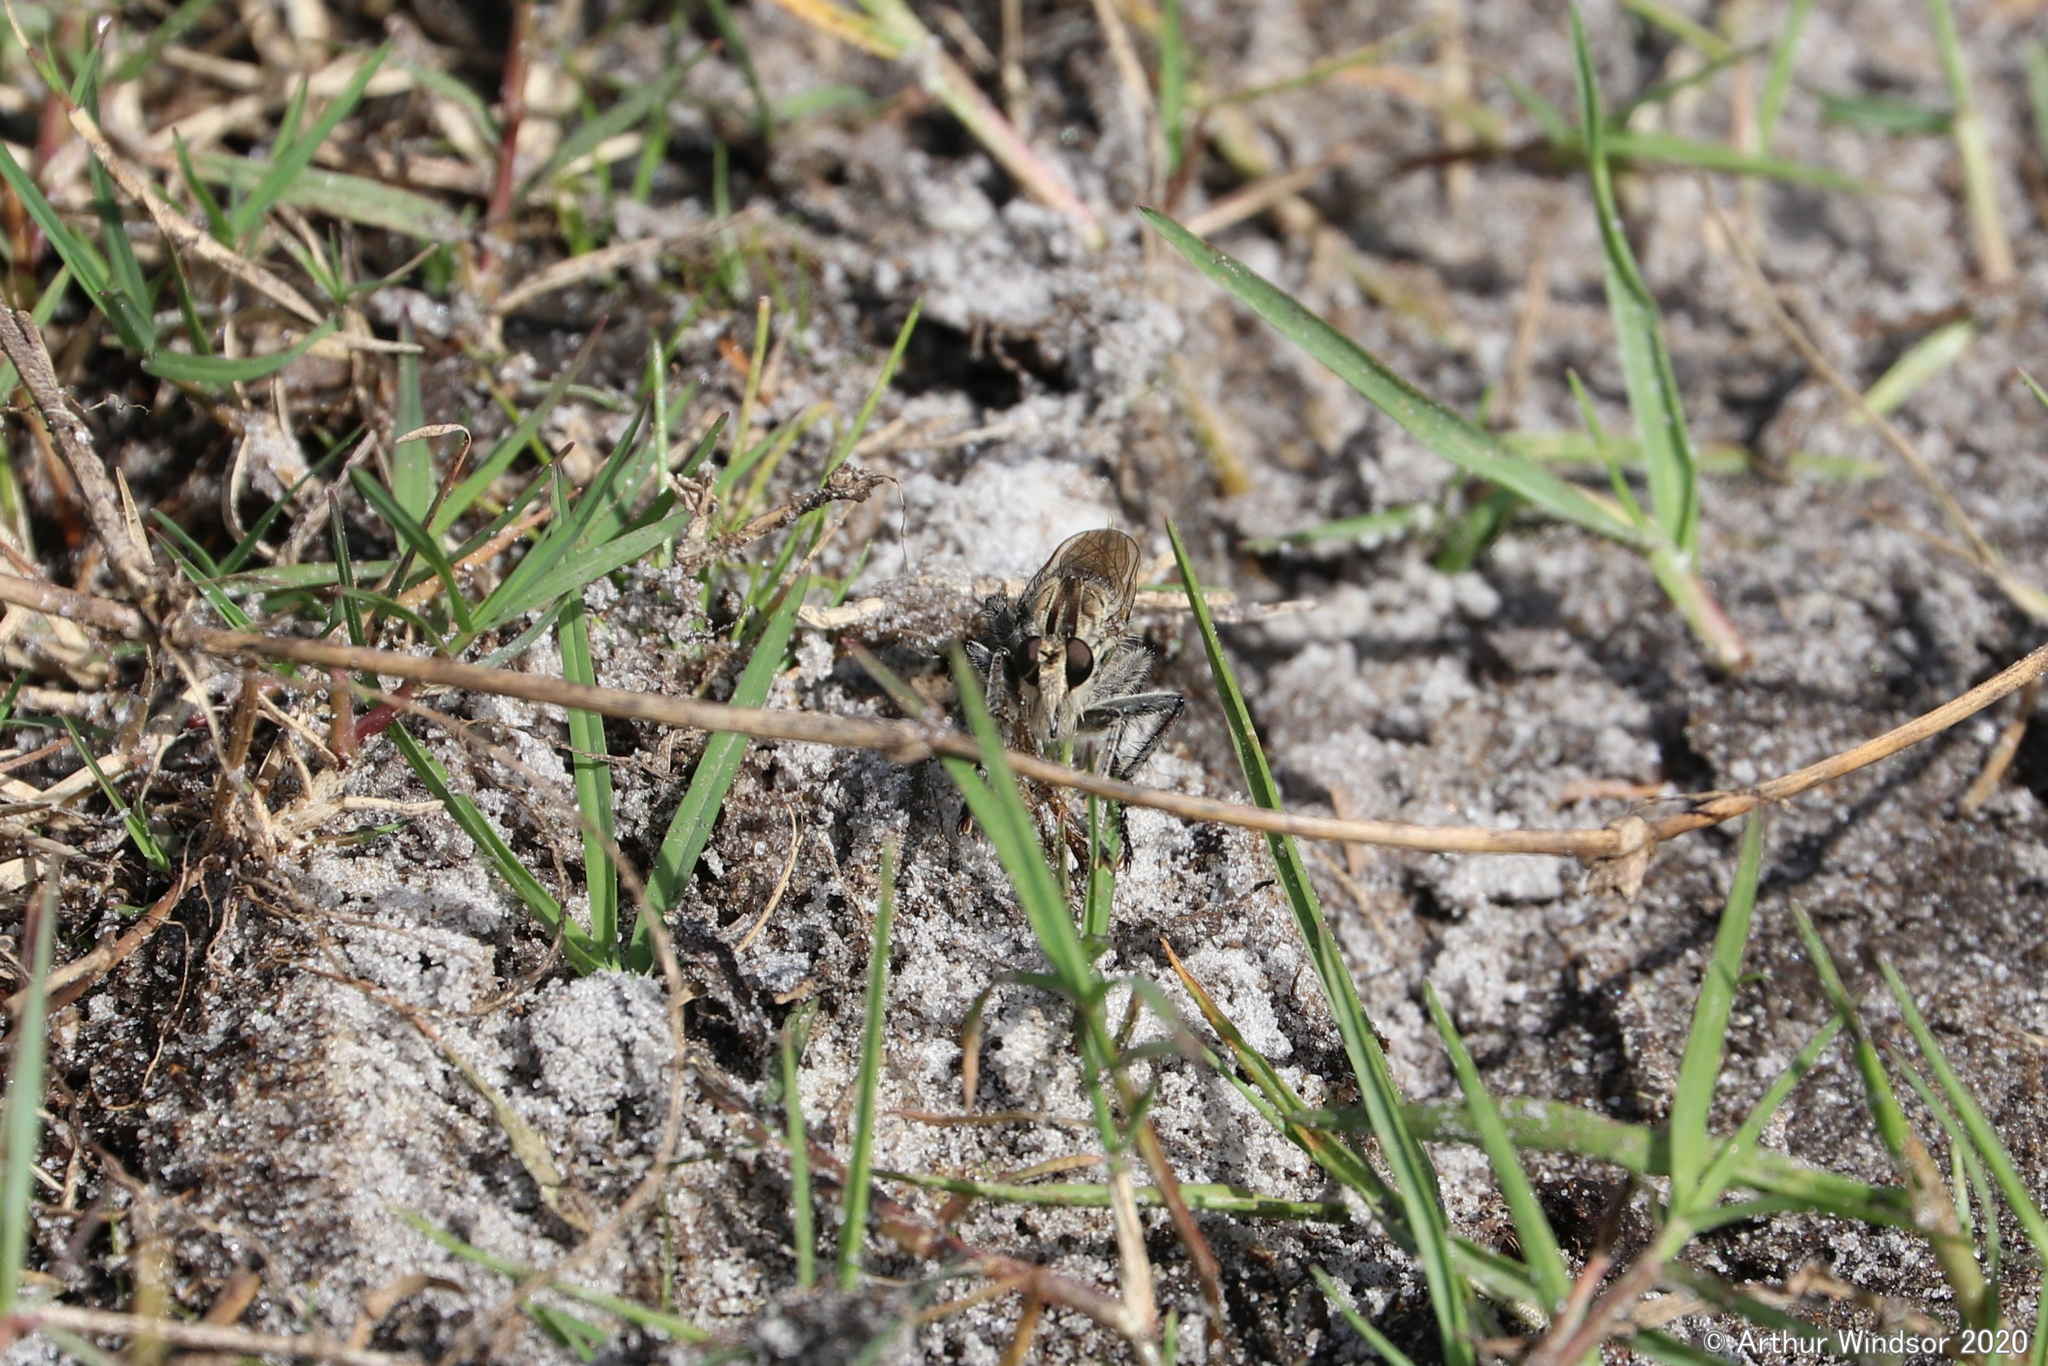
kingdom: Animalia
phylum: Arthropoda
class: Insecta
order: Diptera
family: Asilidae
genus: Triorla
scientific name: Triorla interrupta
